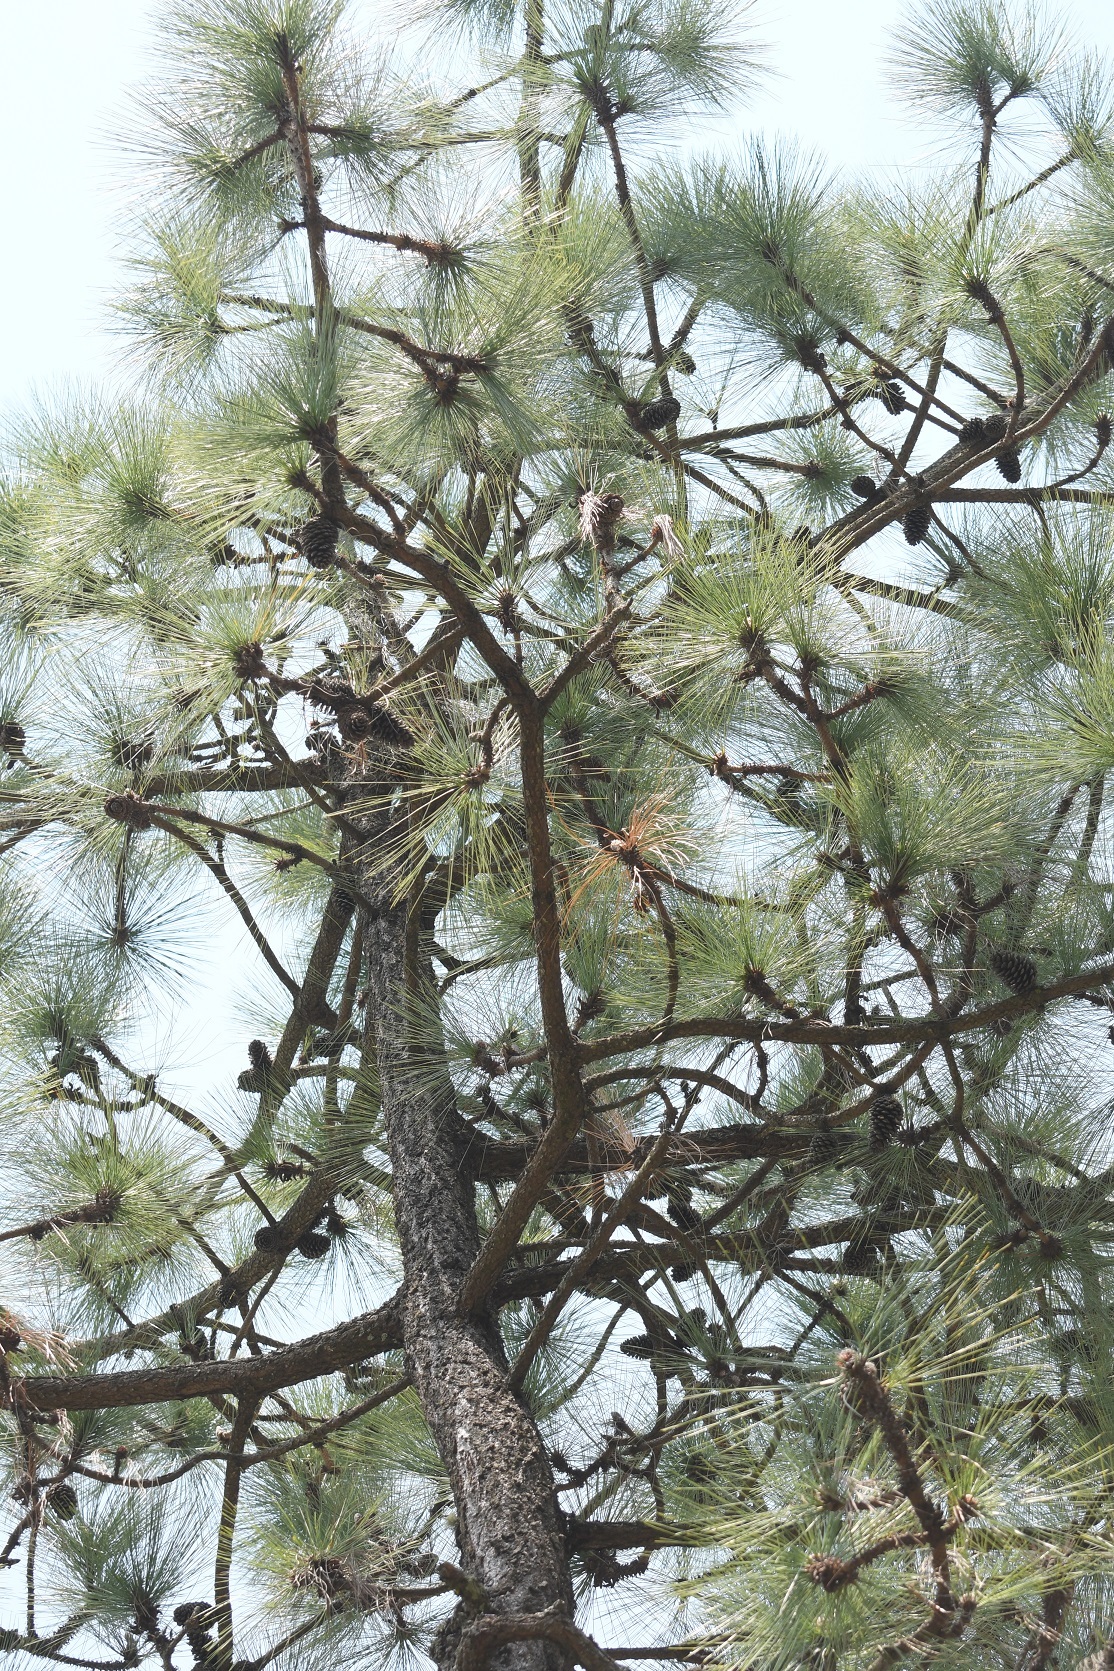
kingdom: Plantae
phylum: Tracheophyta
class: Pinopsida
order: Pinales
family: Pinaceae
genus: Pinus
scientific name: Pinus montezumae
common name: Montezuma pine
